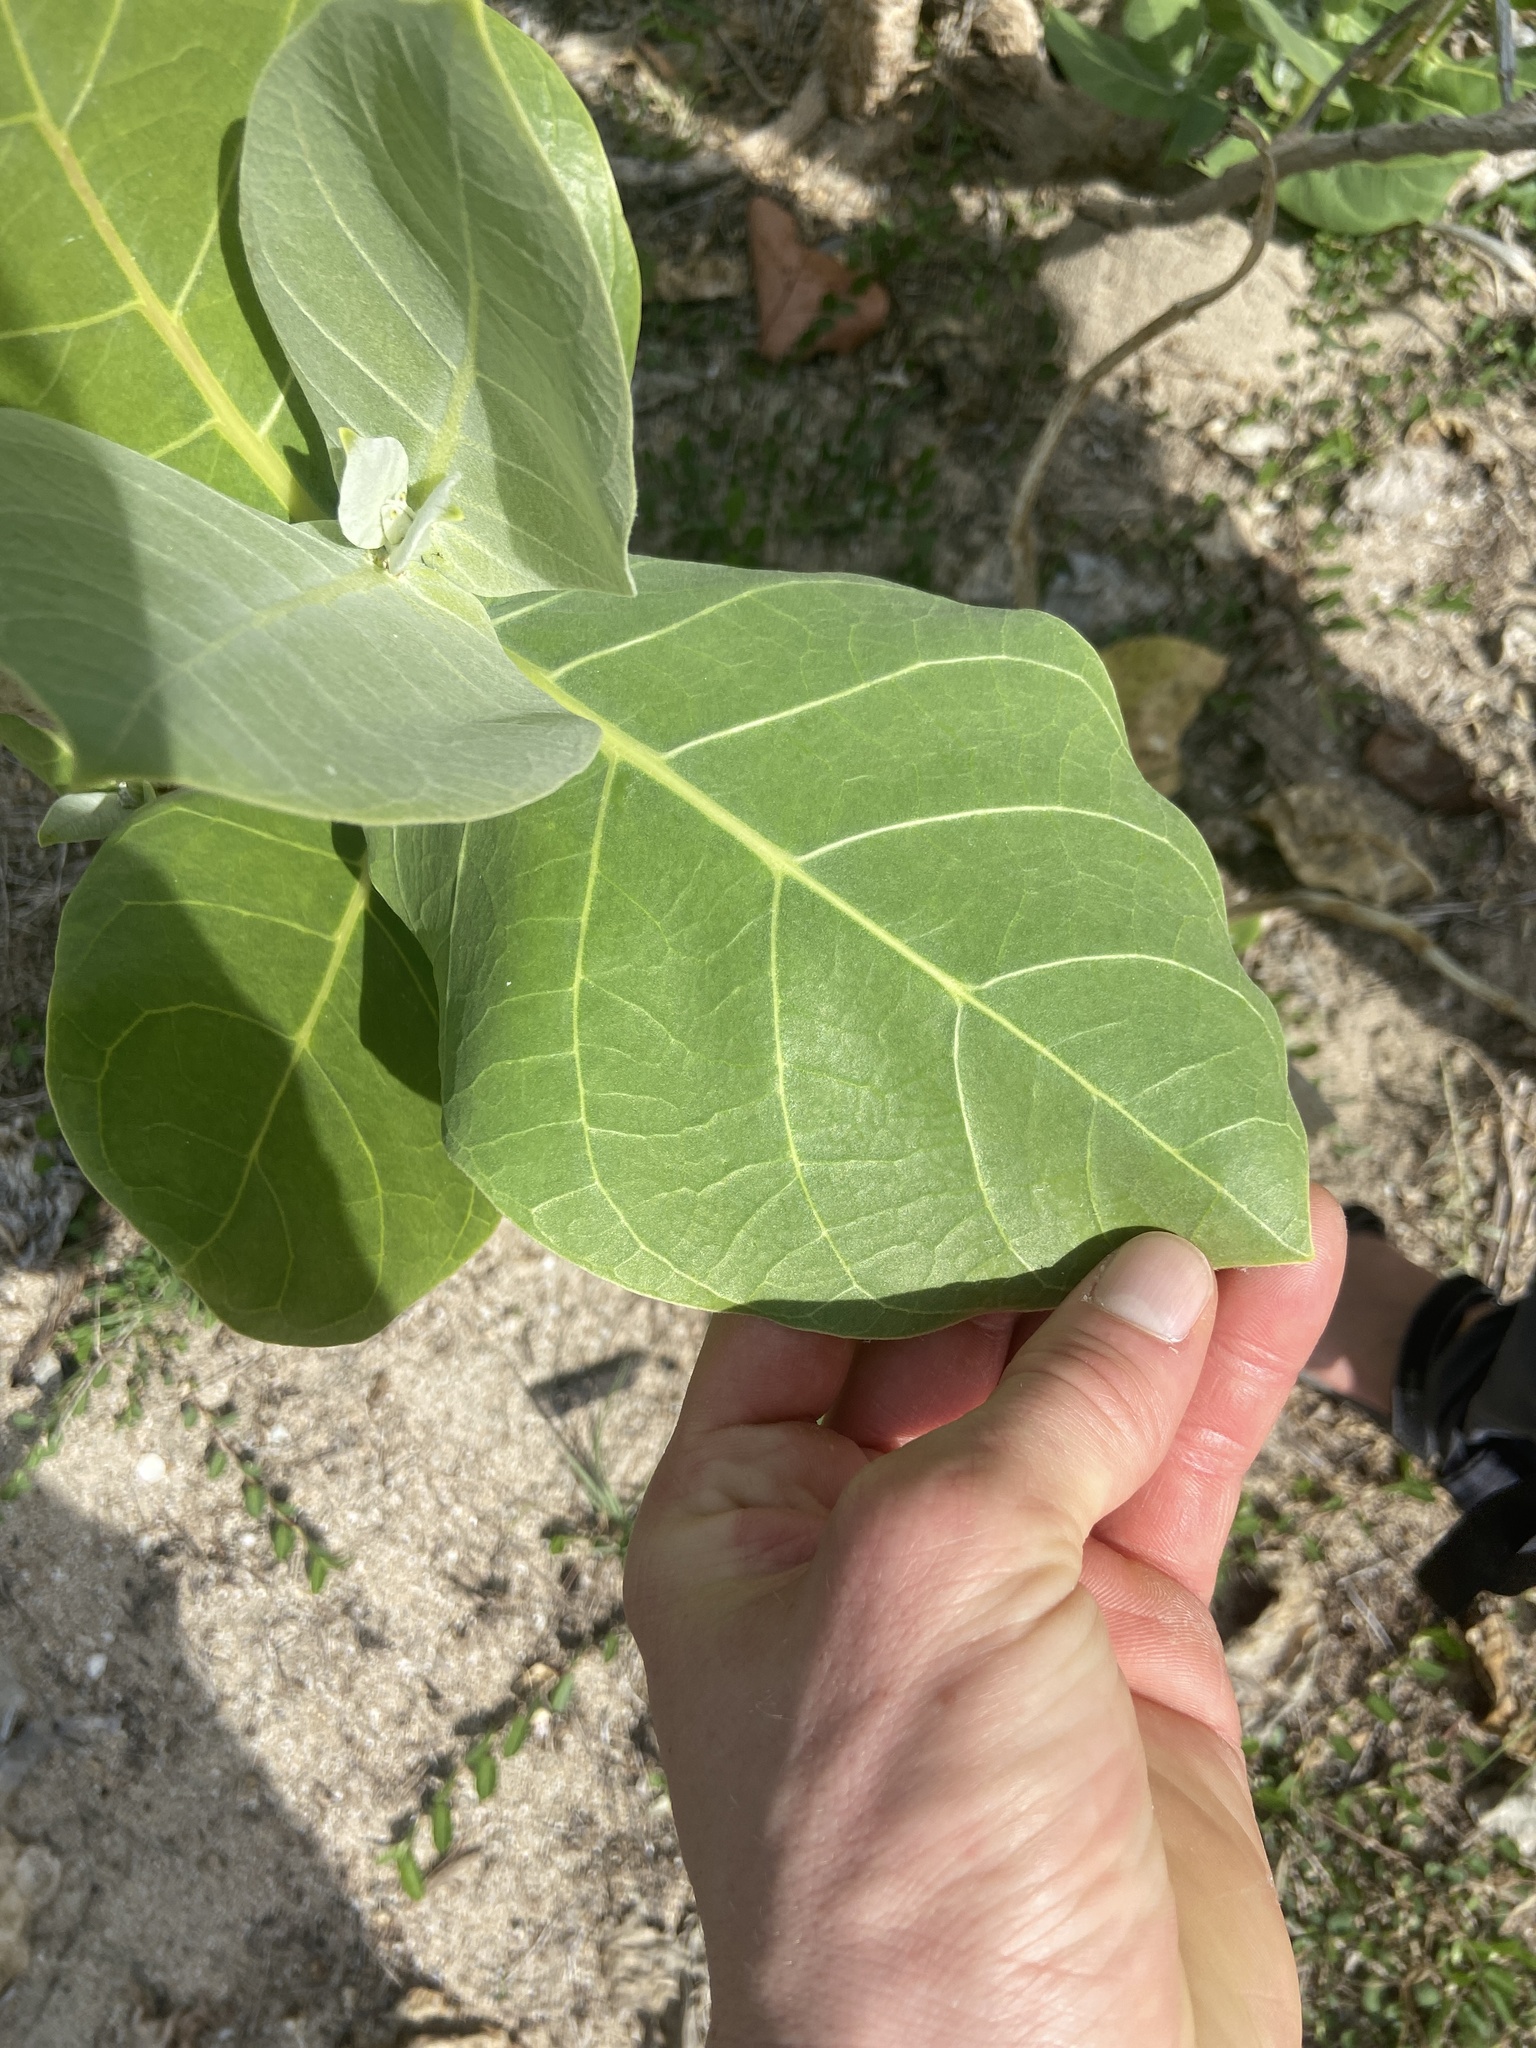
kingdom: Plantae
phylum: Tracheophyta
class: Magnoliopsida
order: Gentianales
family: Apocynaceae
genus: Calotropis
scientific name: Calotropis procera
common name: Roostertree
